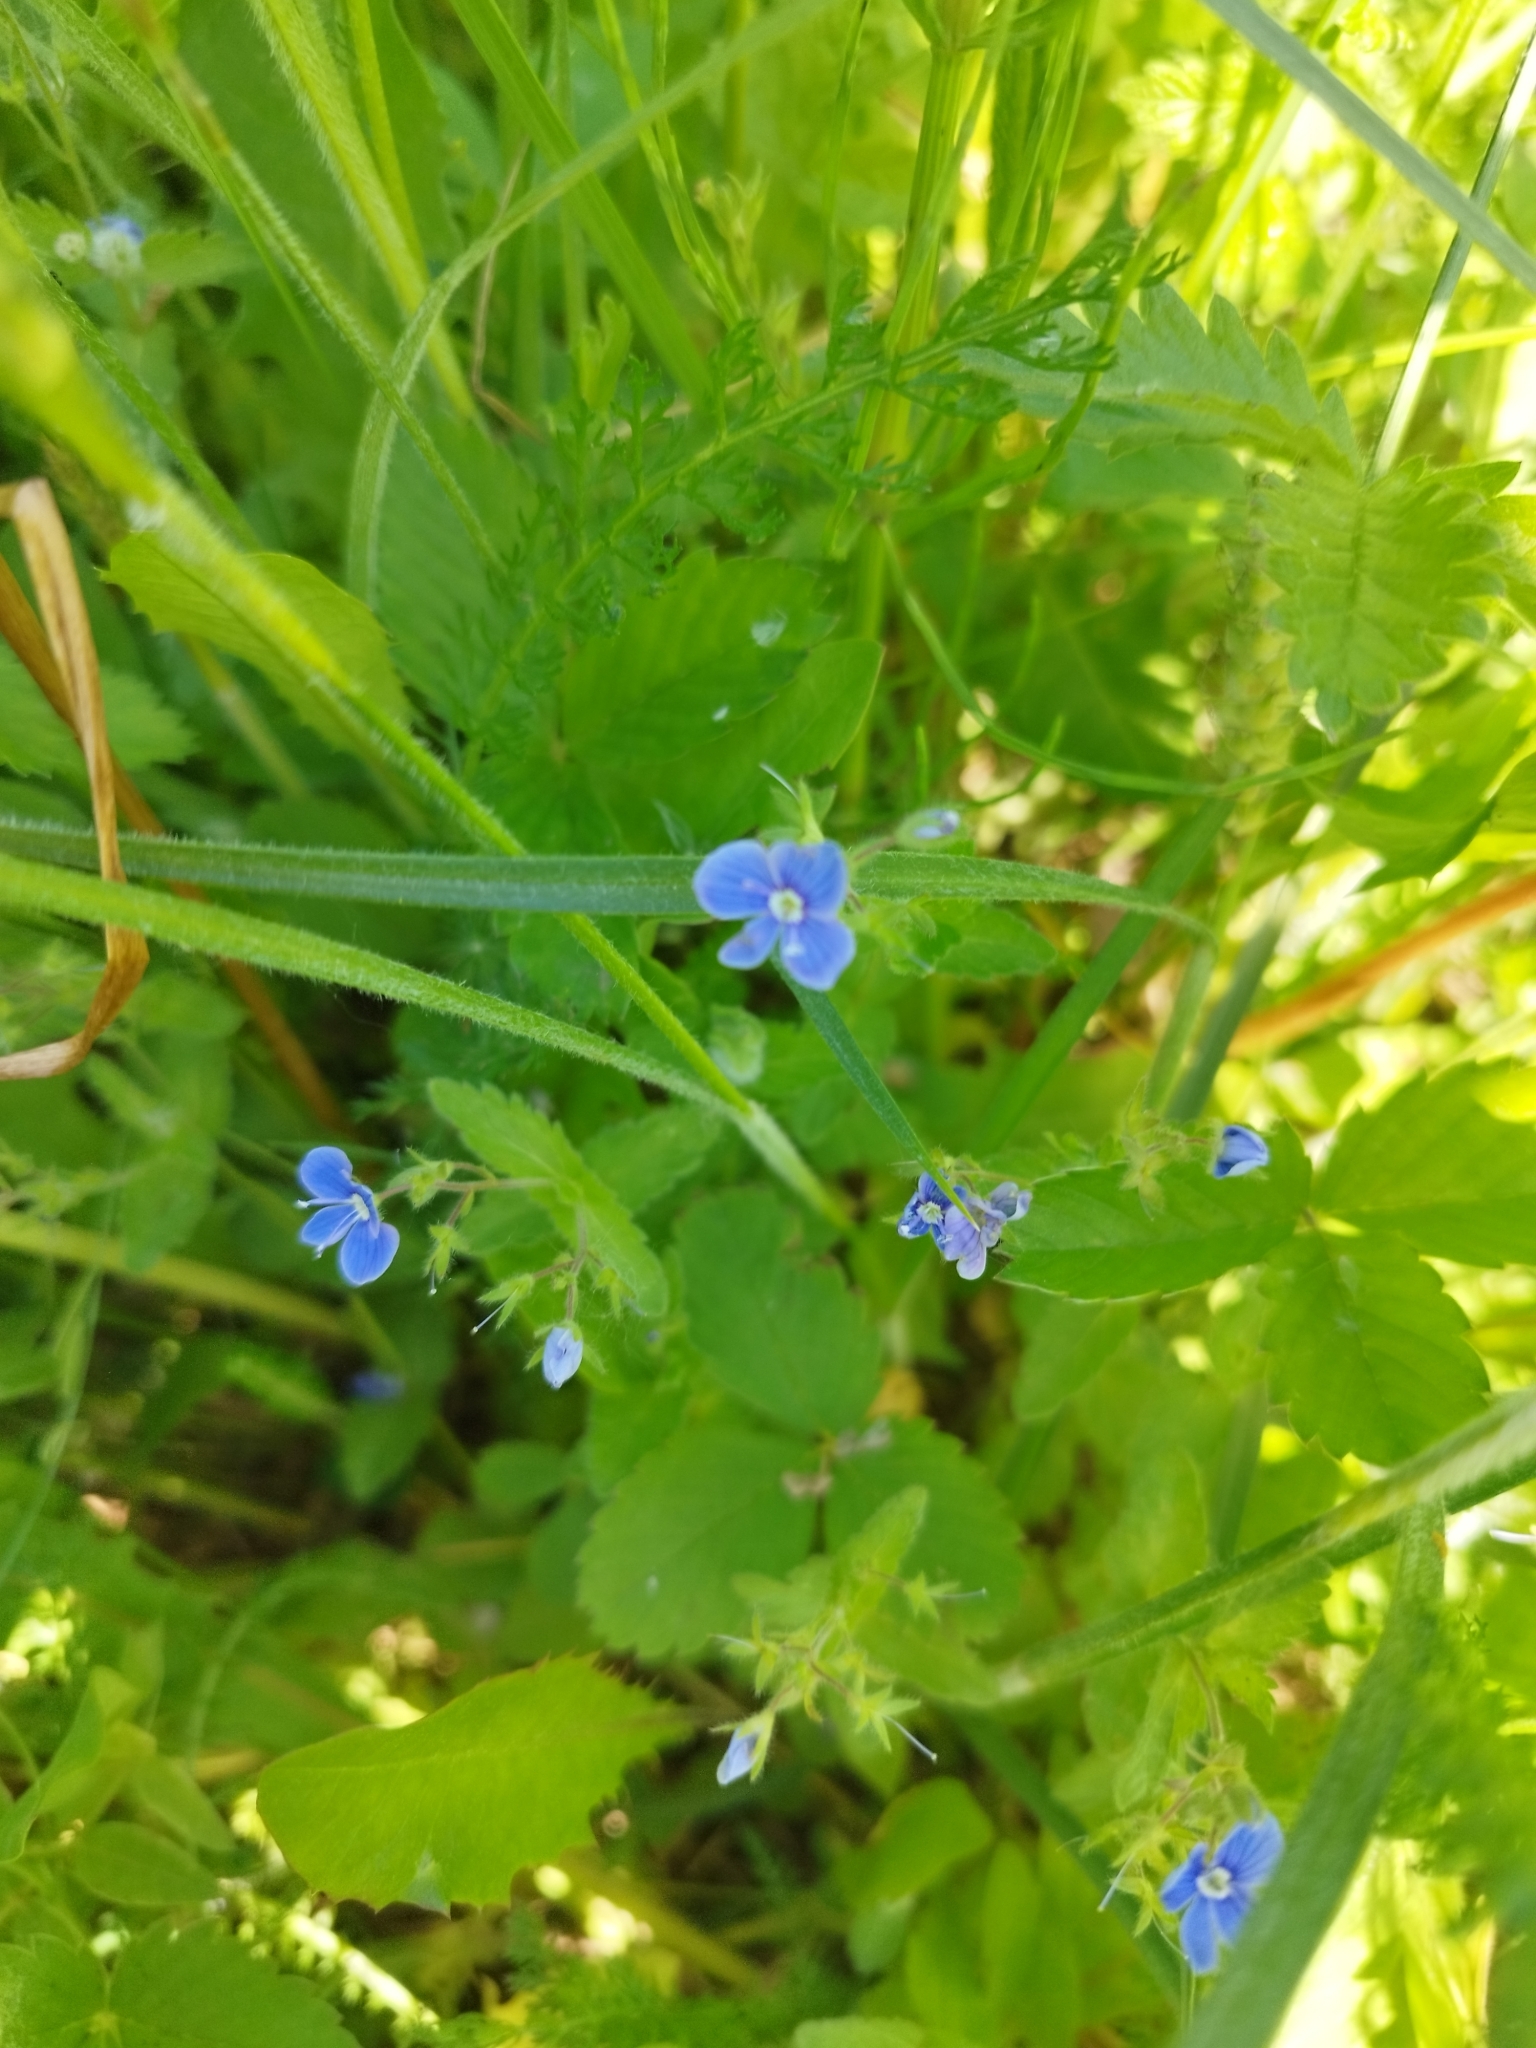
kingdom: Plantae
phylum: Tracheophyta
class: Magnoliopsida
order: Lamiales
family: Plantaginaceae
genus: Veronica
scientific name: Veronica chamaedrys
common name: Germander speedwell
